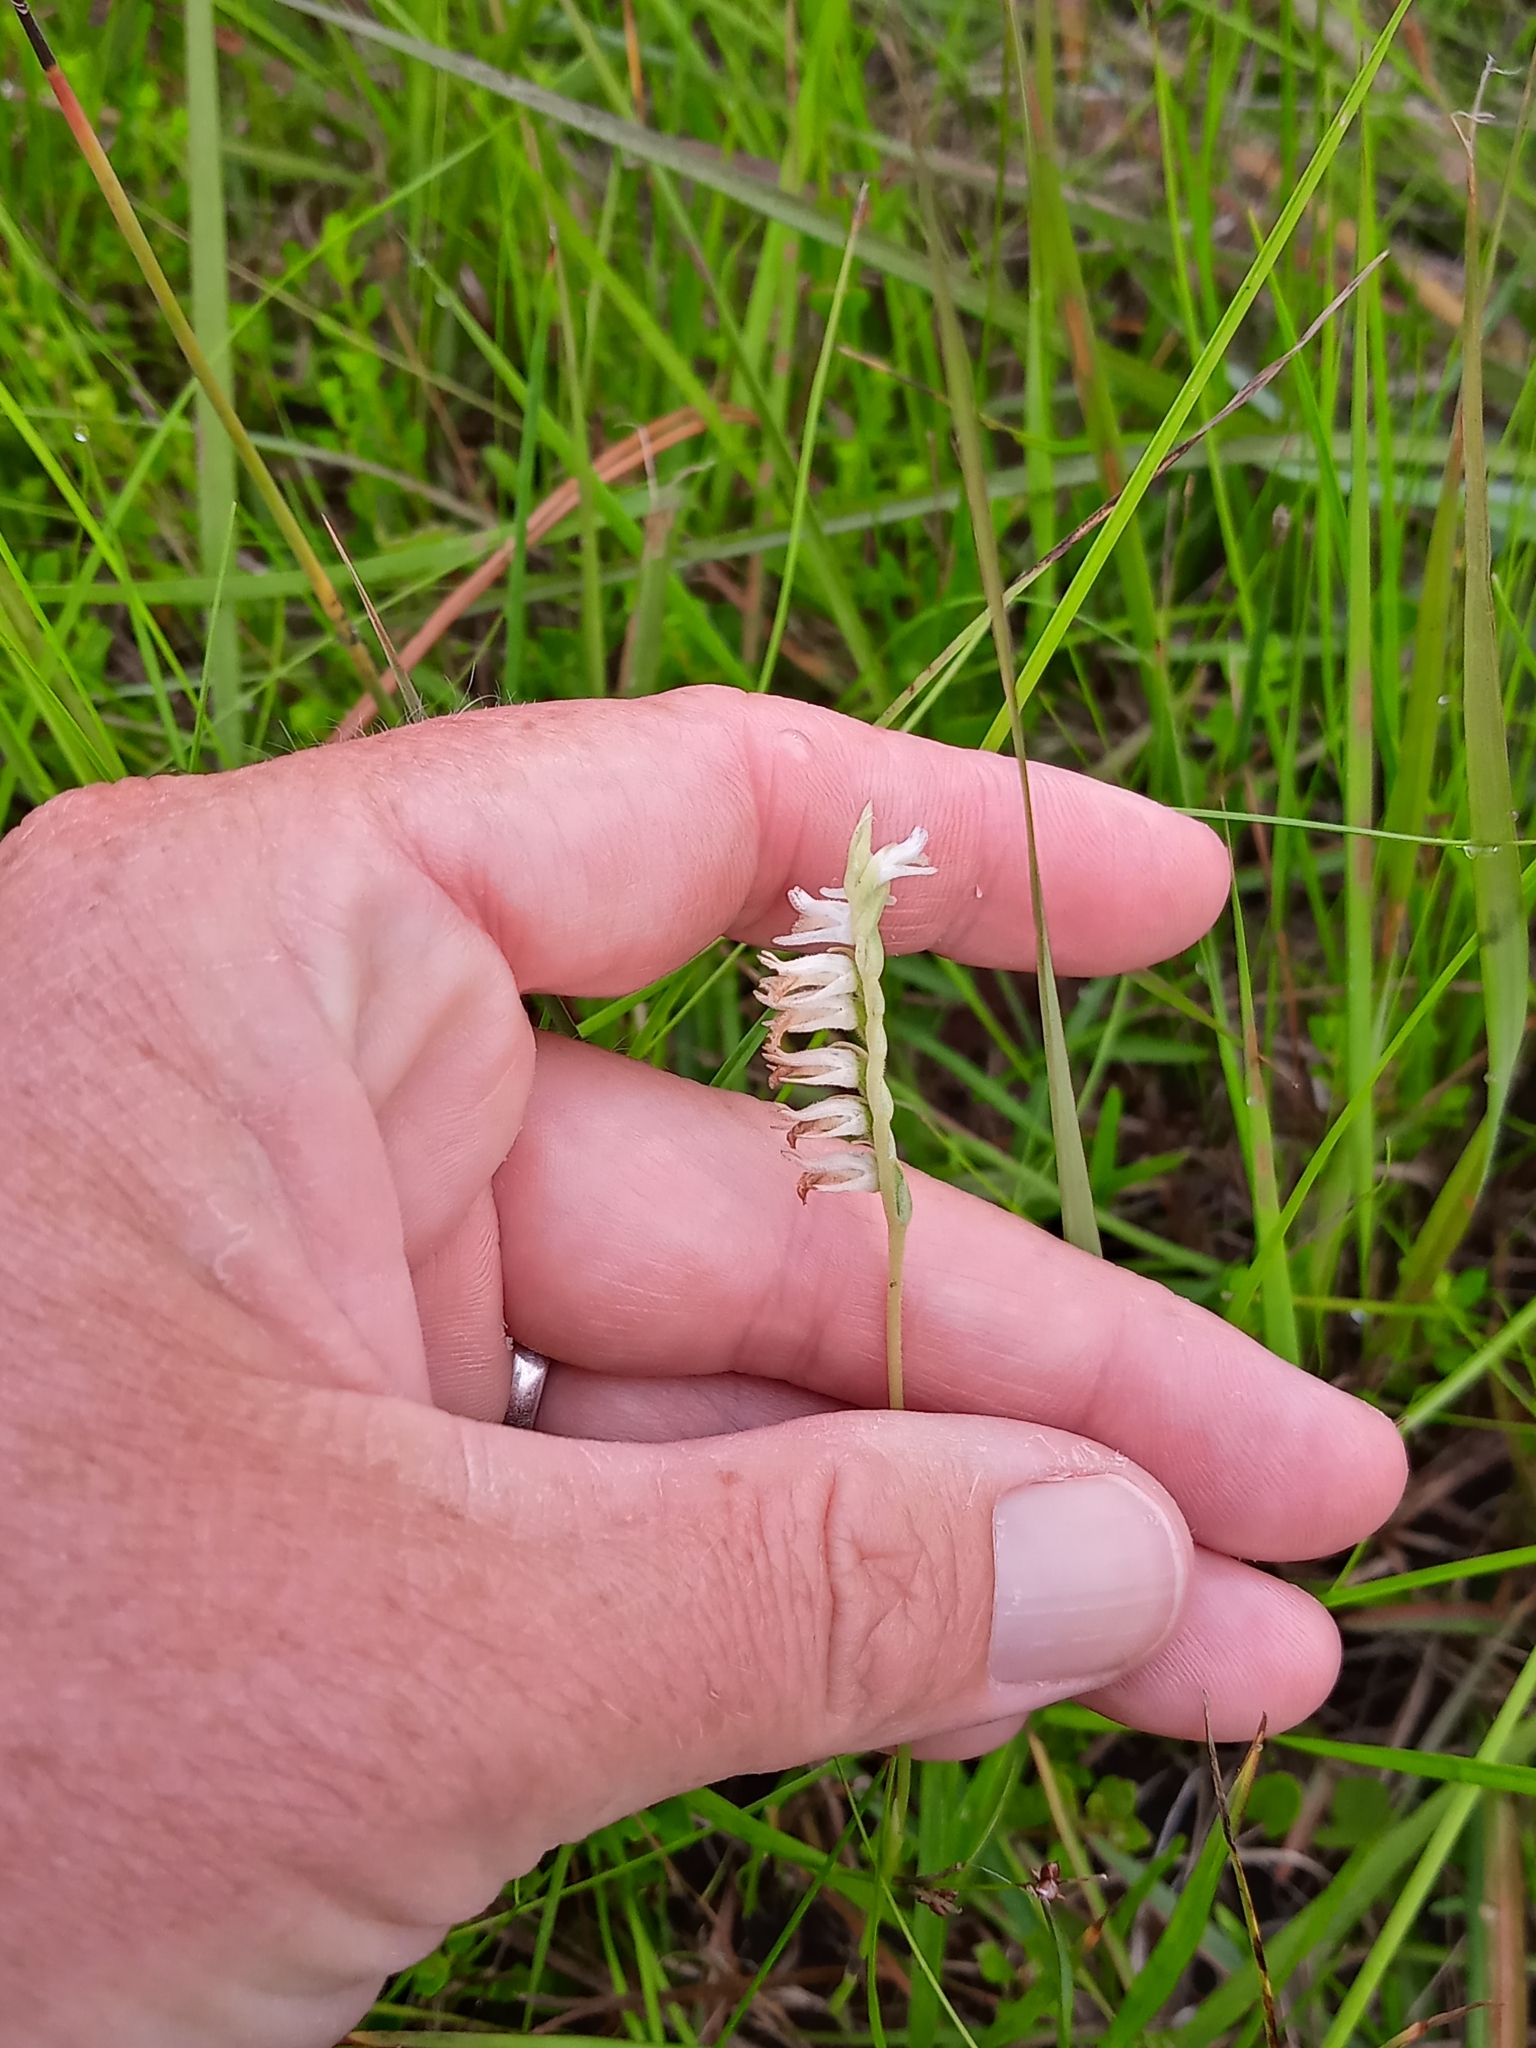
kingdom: Plantae
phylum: Tracheophyta
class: Liliopsida
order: Asparagales
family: Orchidaceae
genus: Spiranthes
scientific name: Spiranthes vernalis
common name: Spring ladies'-tresses
